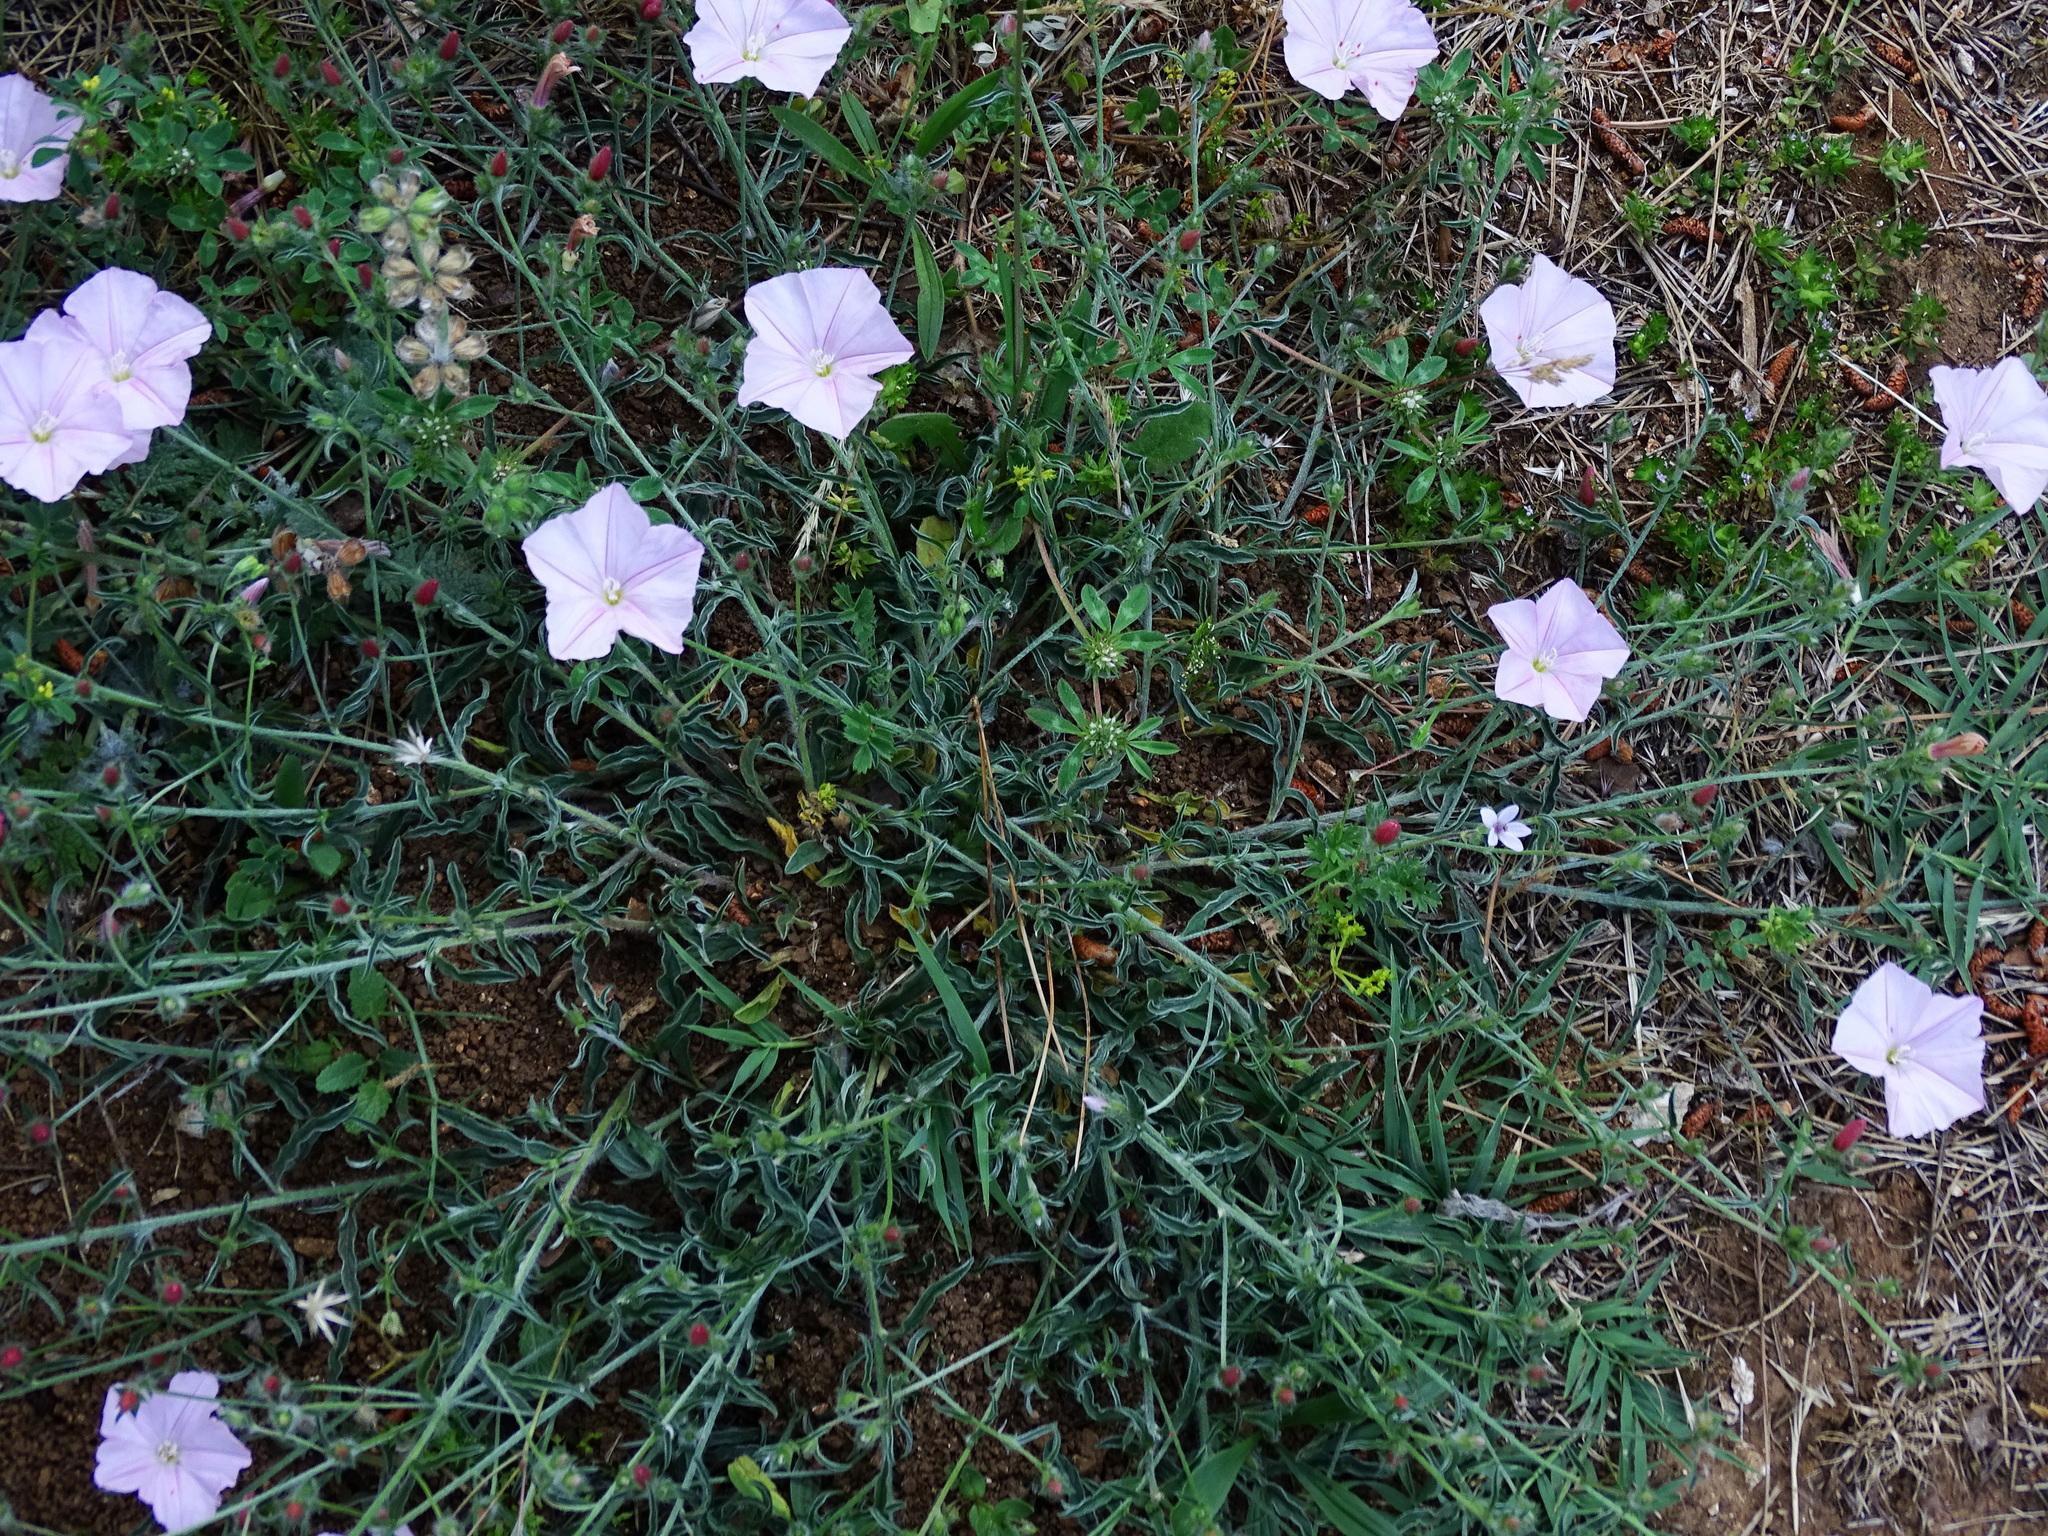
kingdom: Plantae
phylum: Tracheophyta
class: Magnoliopsida
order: Solanales
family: Convolvulaceae
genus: Convolvulus
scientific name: Convolvulus cantabrica
